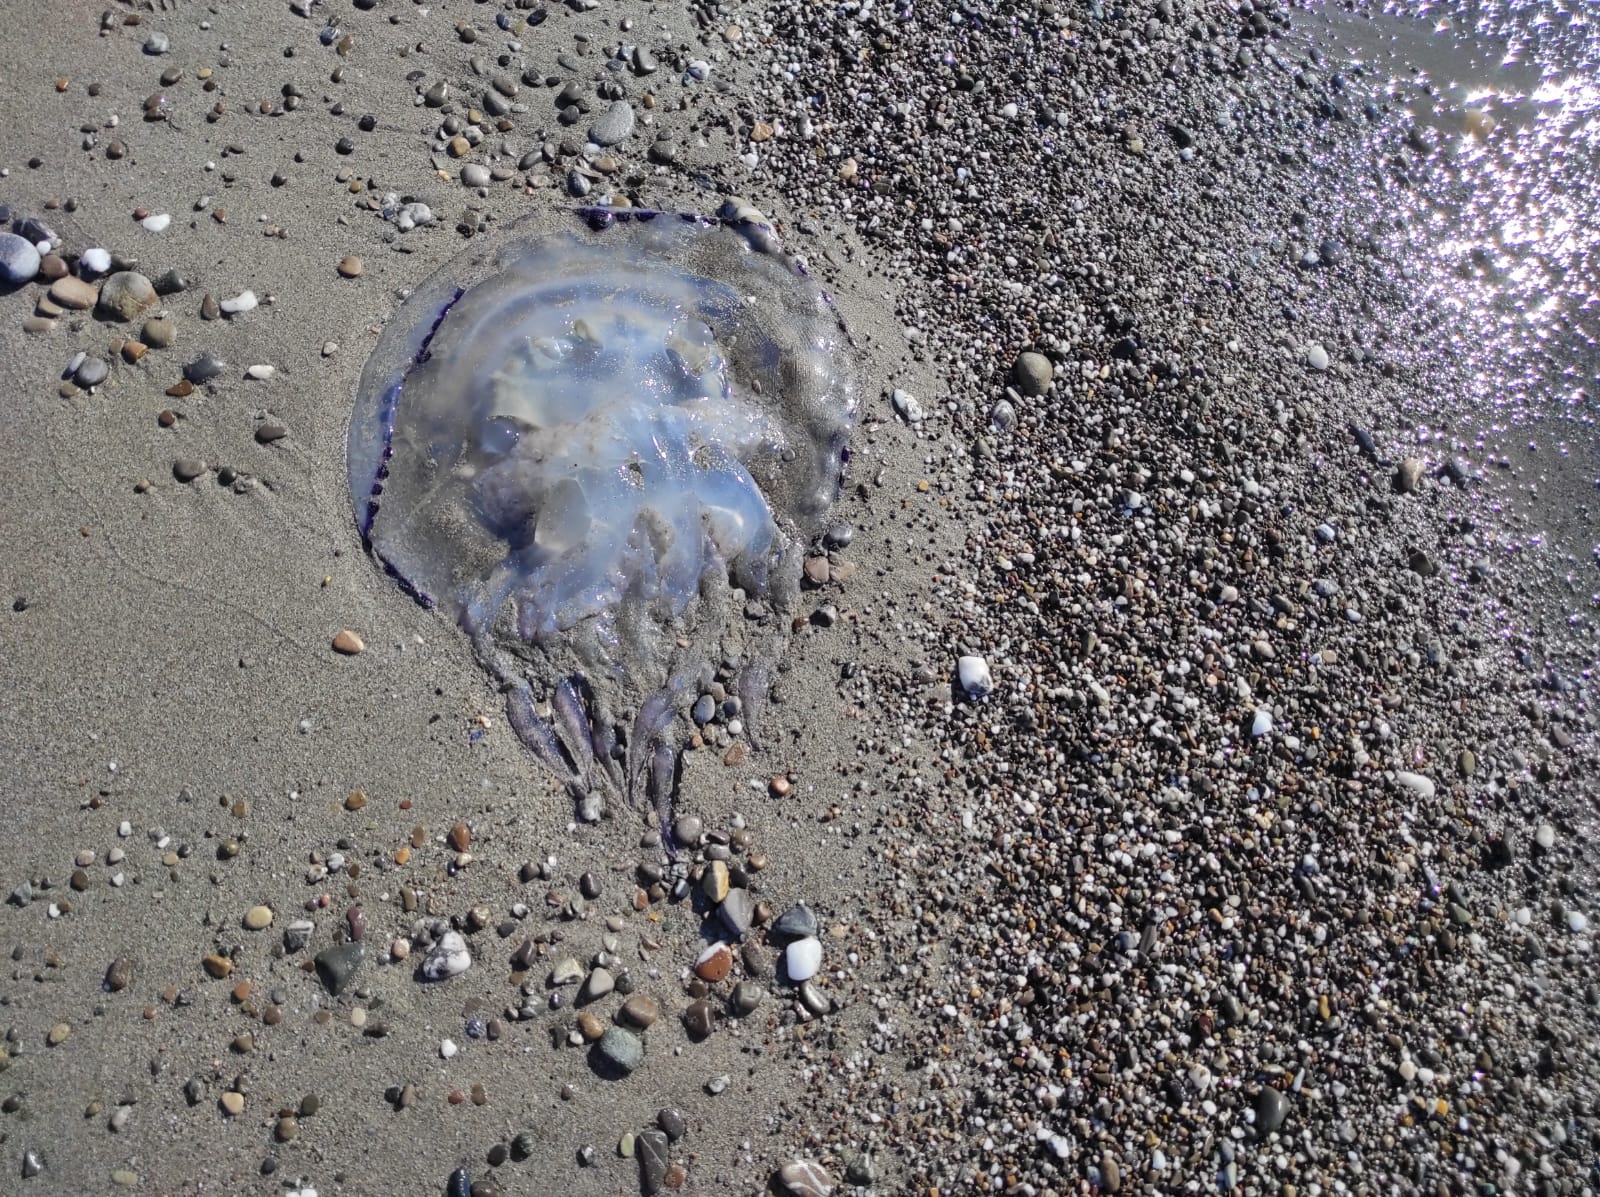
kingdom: Animalia
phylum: Cnidaria
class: Scyphozoa
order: Rhizostomeae
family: Rhizostomatidae
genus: Rhizostoma
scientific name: Rhizostoma pulmo
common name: Barrel jellyfish
